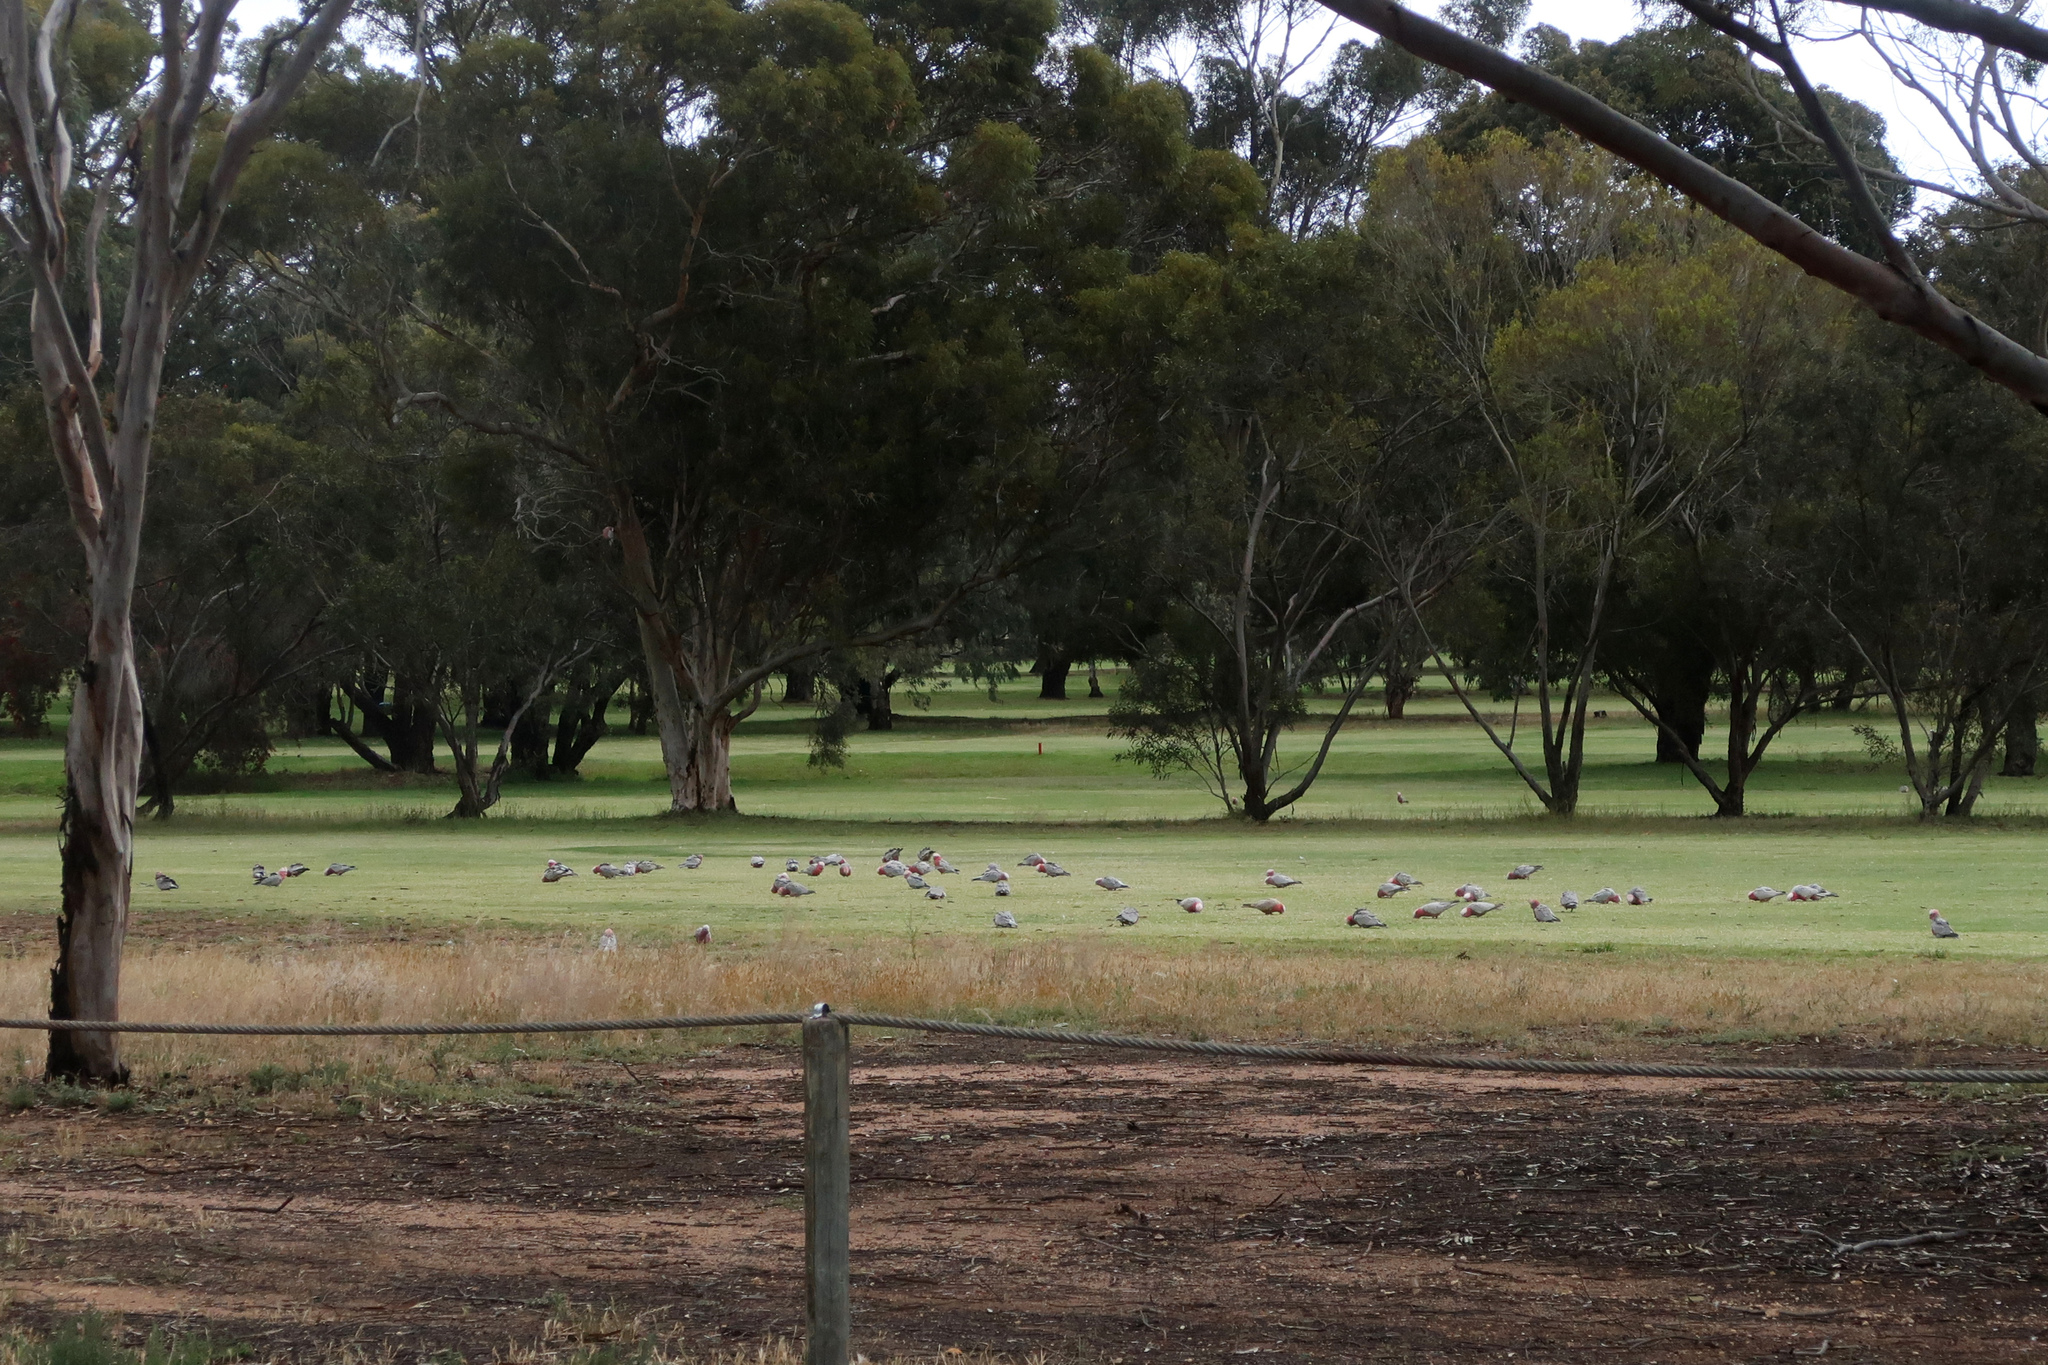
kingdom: Animalia
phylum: Chordata
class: Aves
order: Psittaciformes
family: Psittacidae
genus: Eolophus
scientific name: Eolophus roseicapilla
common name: Galah
